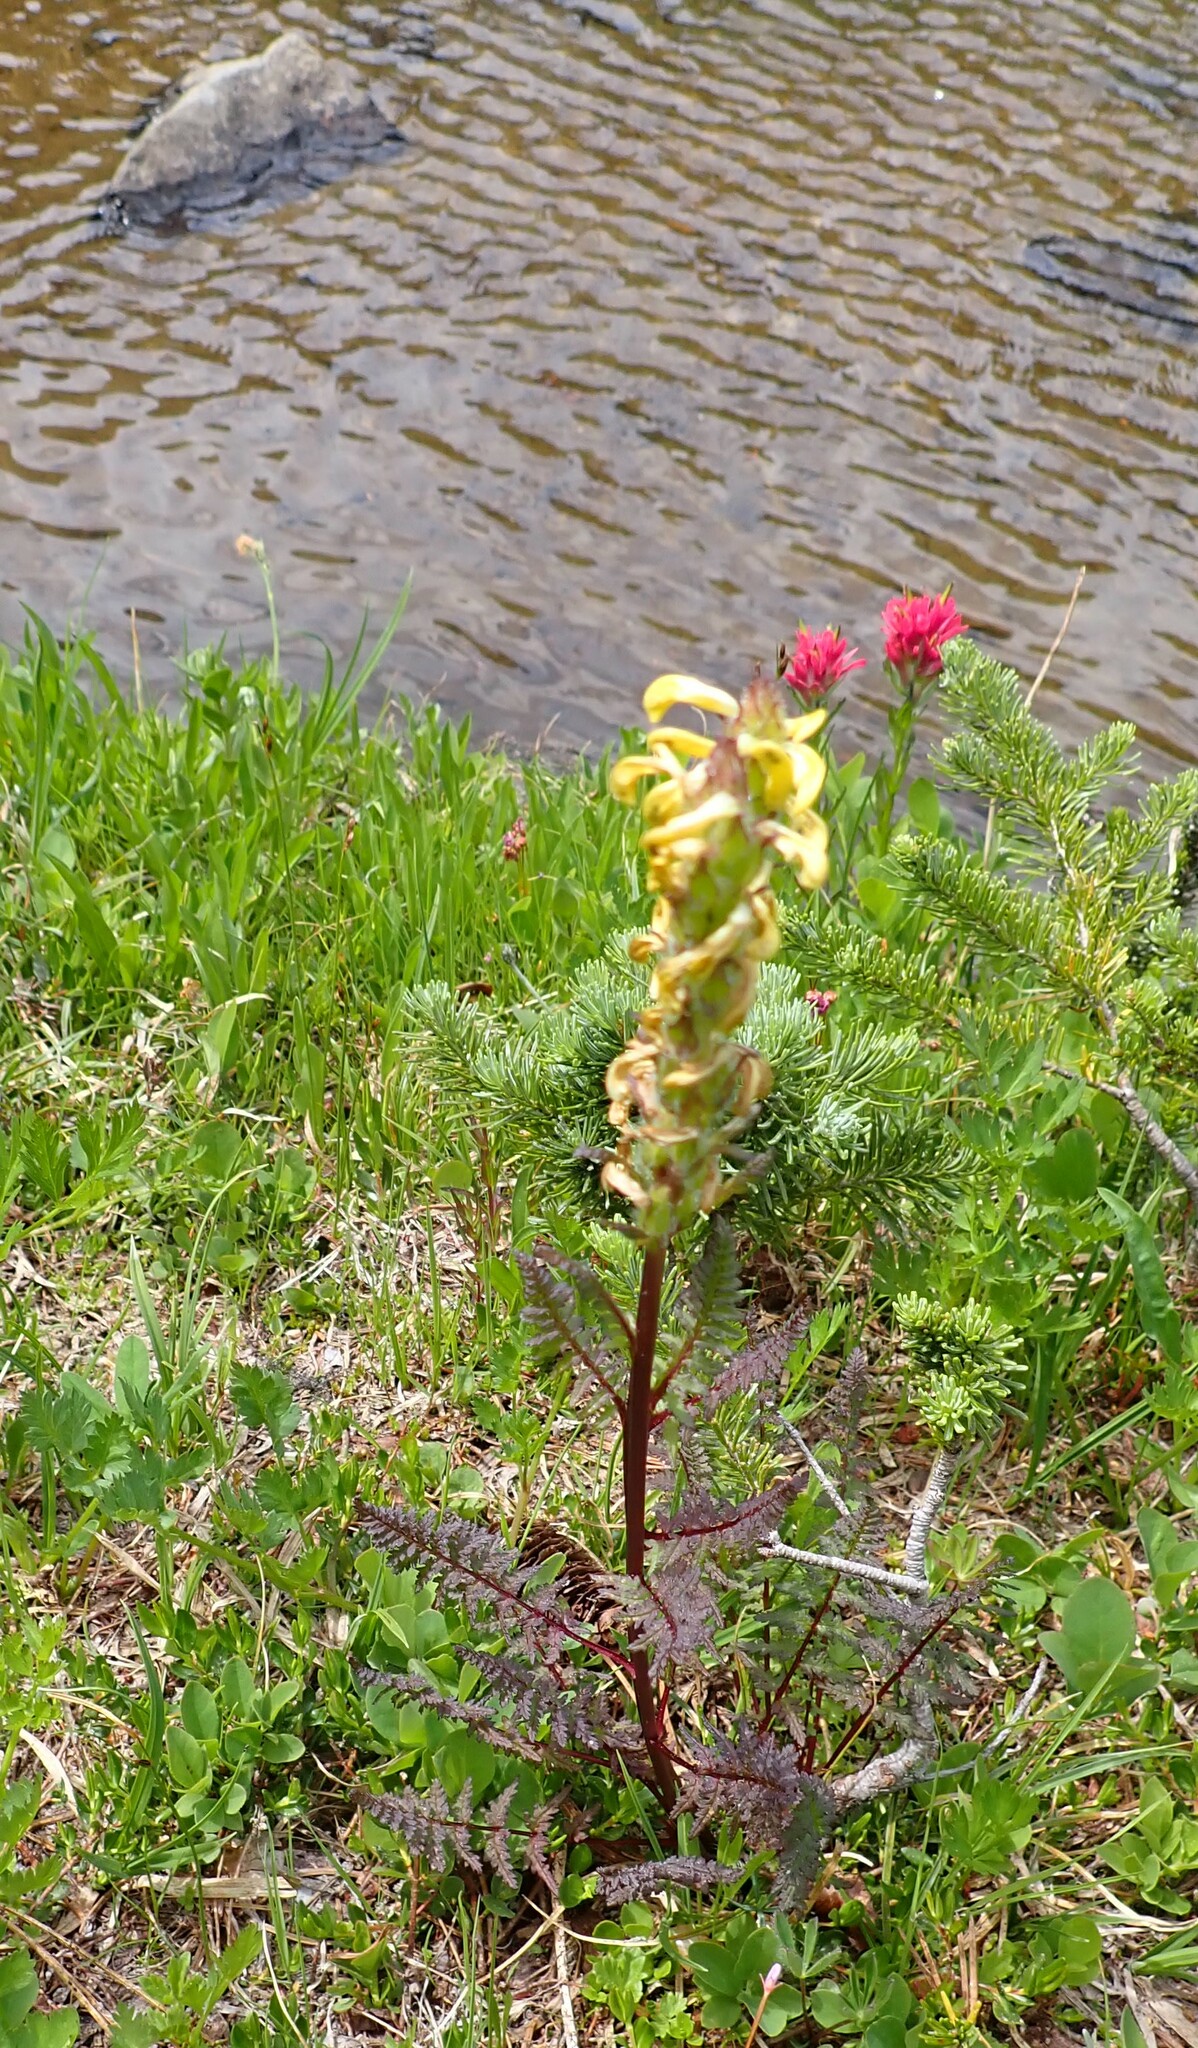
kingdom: Plantae
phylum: Tracheophyta
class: Magnoliopsida
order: Lamiales
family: Orobanchaceae
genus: Pedicularis
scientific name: Pedicularis rainierensis
